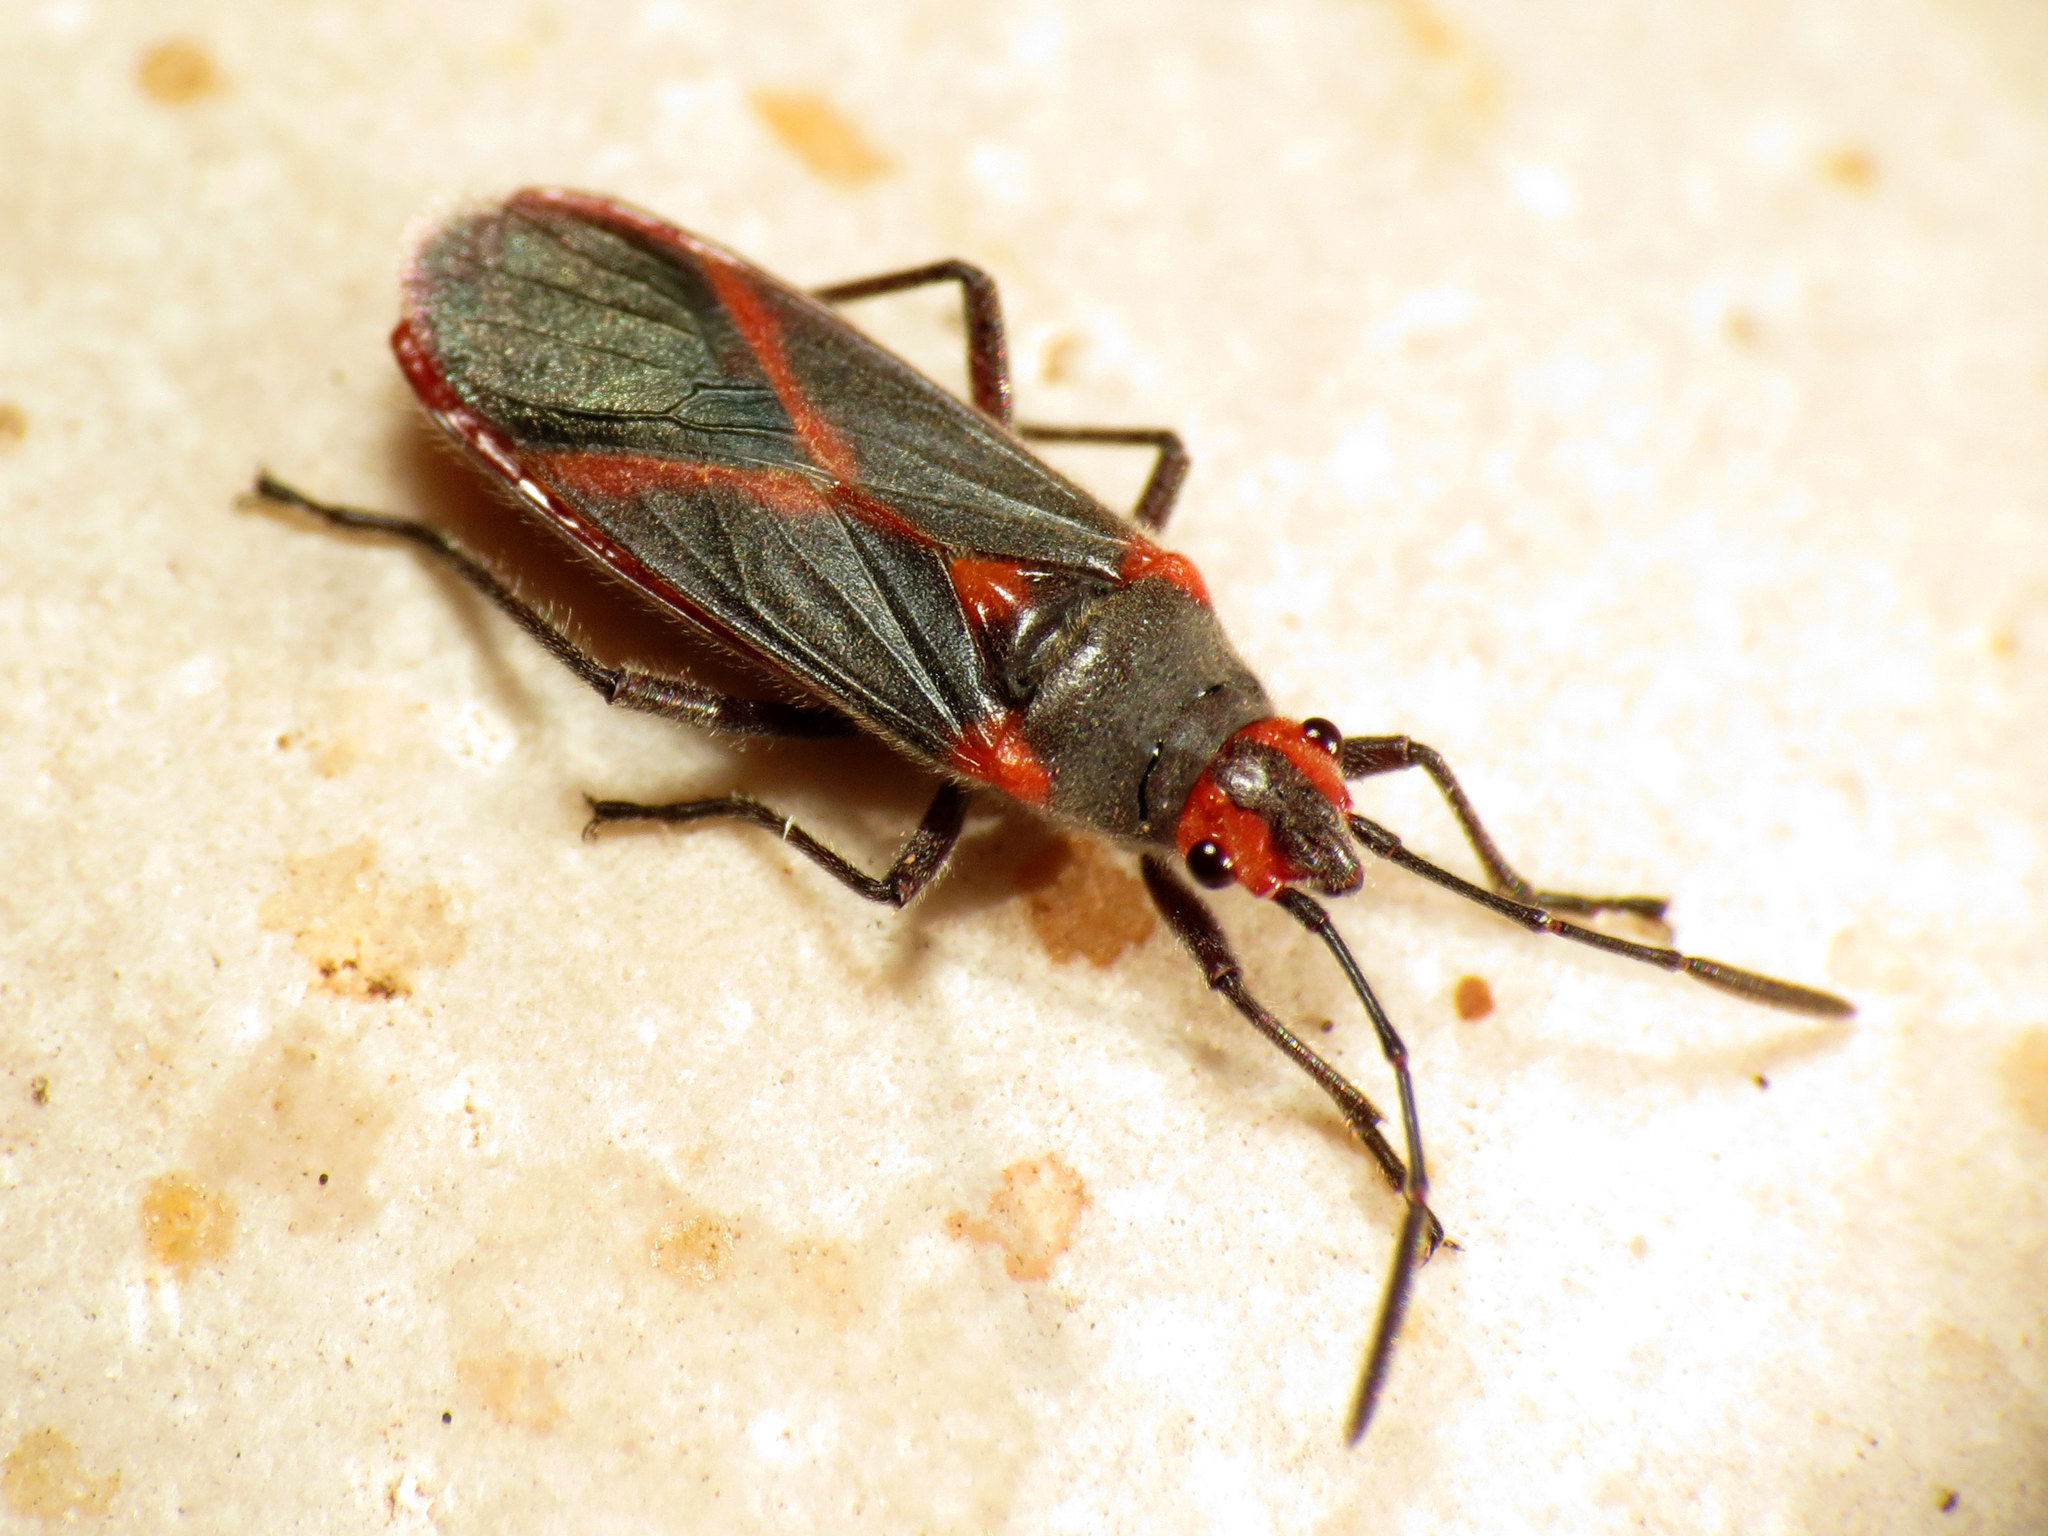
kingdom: Animalia
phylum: Arthropoda
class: Insecta
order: Hemiptera
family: Lygaeidae
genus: Caenocoris
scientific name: Caenocoris nerii
